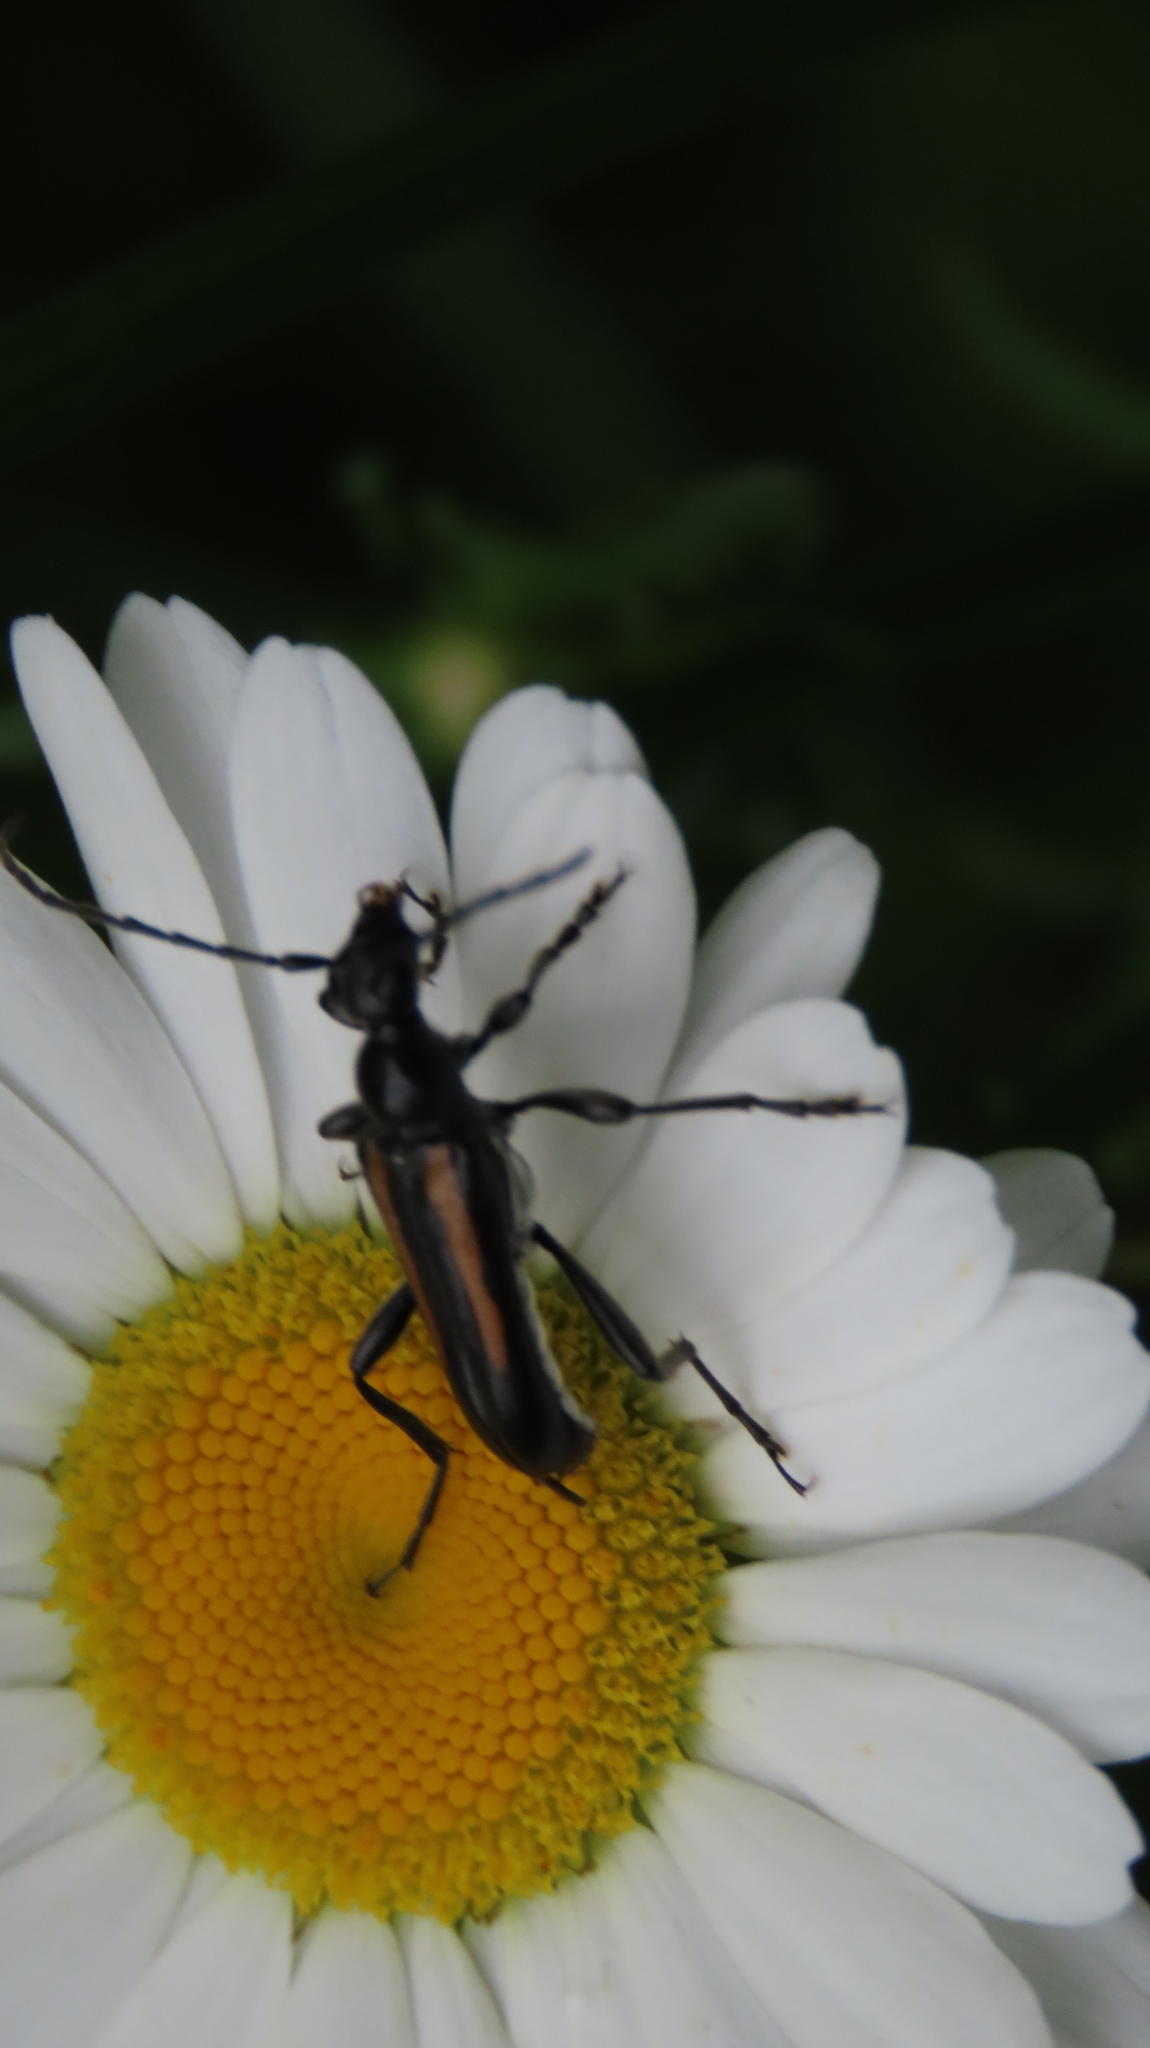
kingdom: Animalia
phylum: Arthropoda
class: Insecta
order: Coleoptera
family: Cerambycidae
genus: Strangalepta
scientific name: Strangalepta abbreviata
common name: Strangalepta flower longhorn beetle
